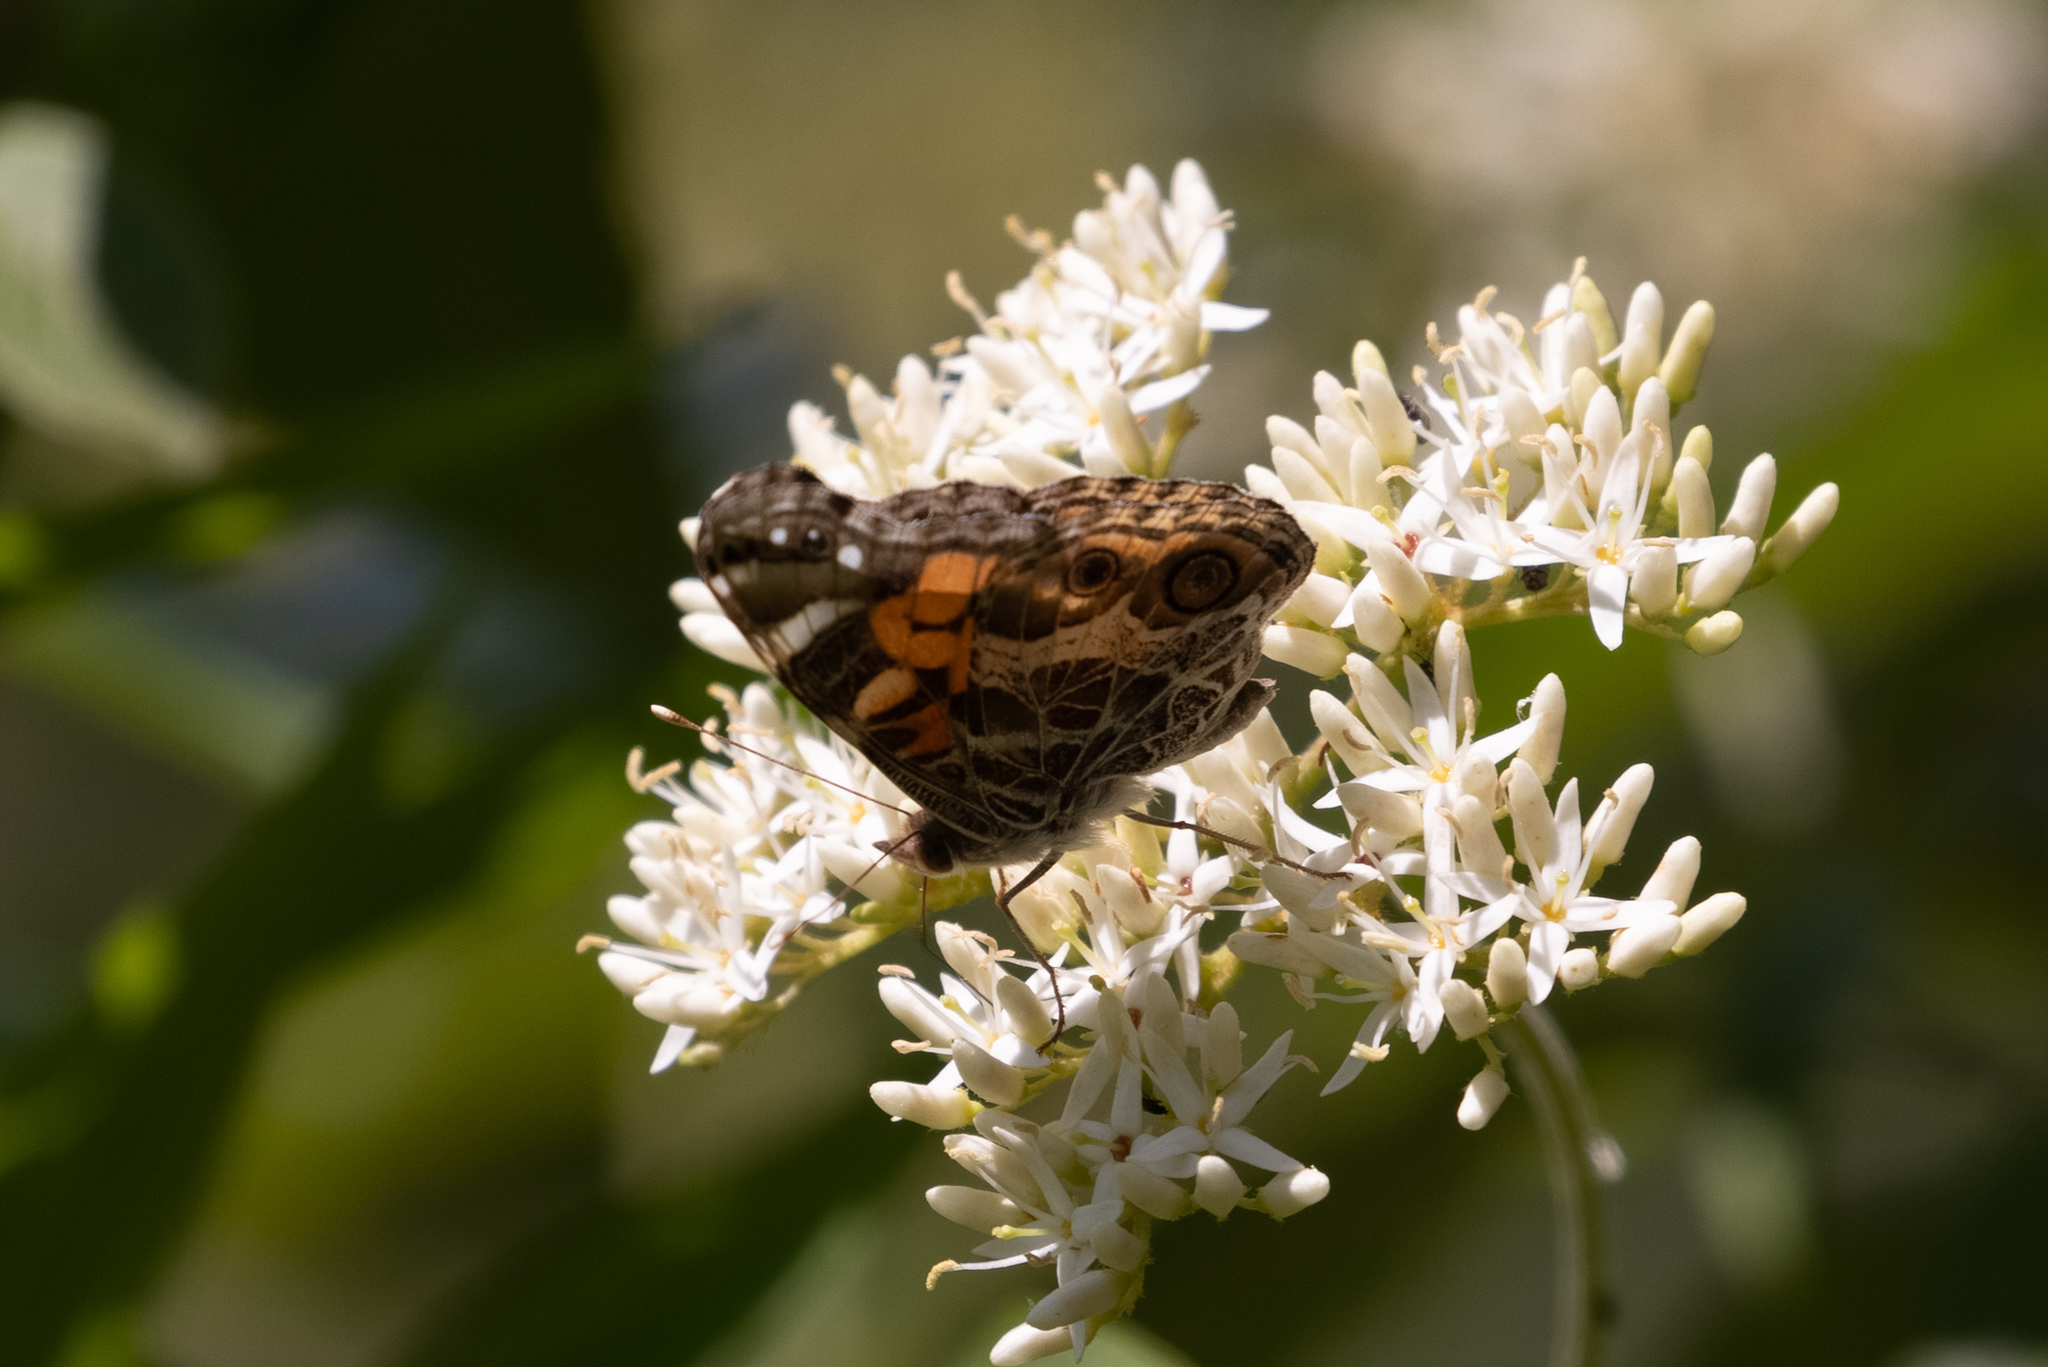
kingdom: Animalia
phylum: Arthropoda
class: Insecta
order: Lepidoptera
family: Nymphalidae
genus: Vanessa
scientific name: Vanessa virginiensis
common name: American lady
